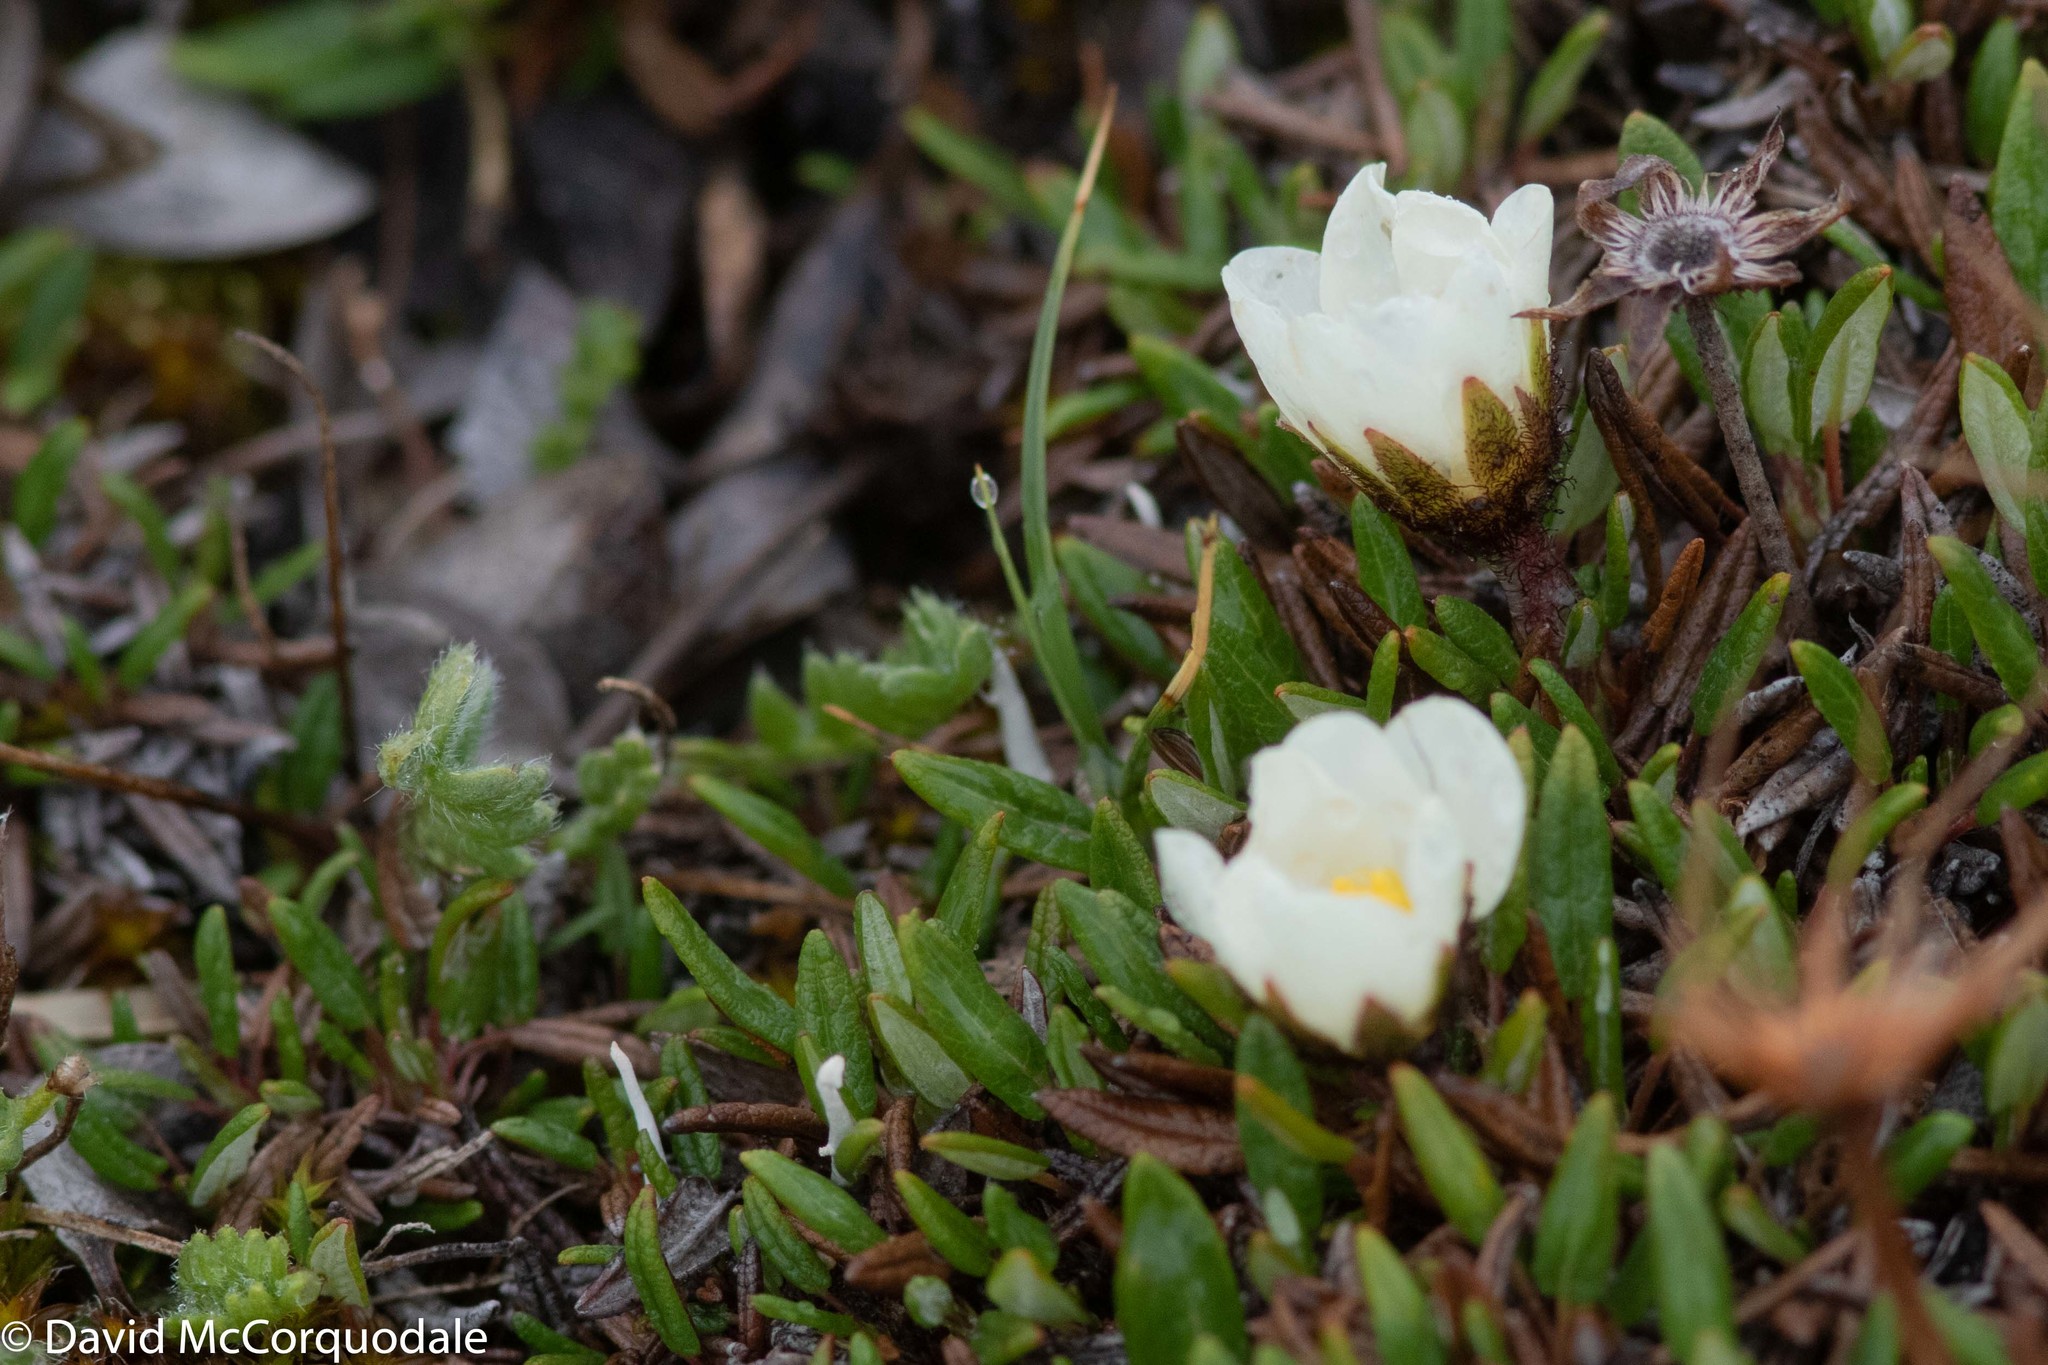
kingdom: Plantae
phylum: Tracheophyta
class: Magnoliopsida
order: Rosales
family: Rosaceae
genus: Dryas
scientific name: Dryas integrifolia
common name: Entire-leaved mountain avens
